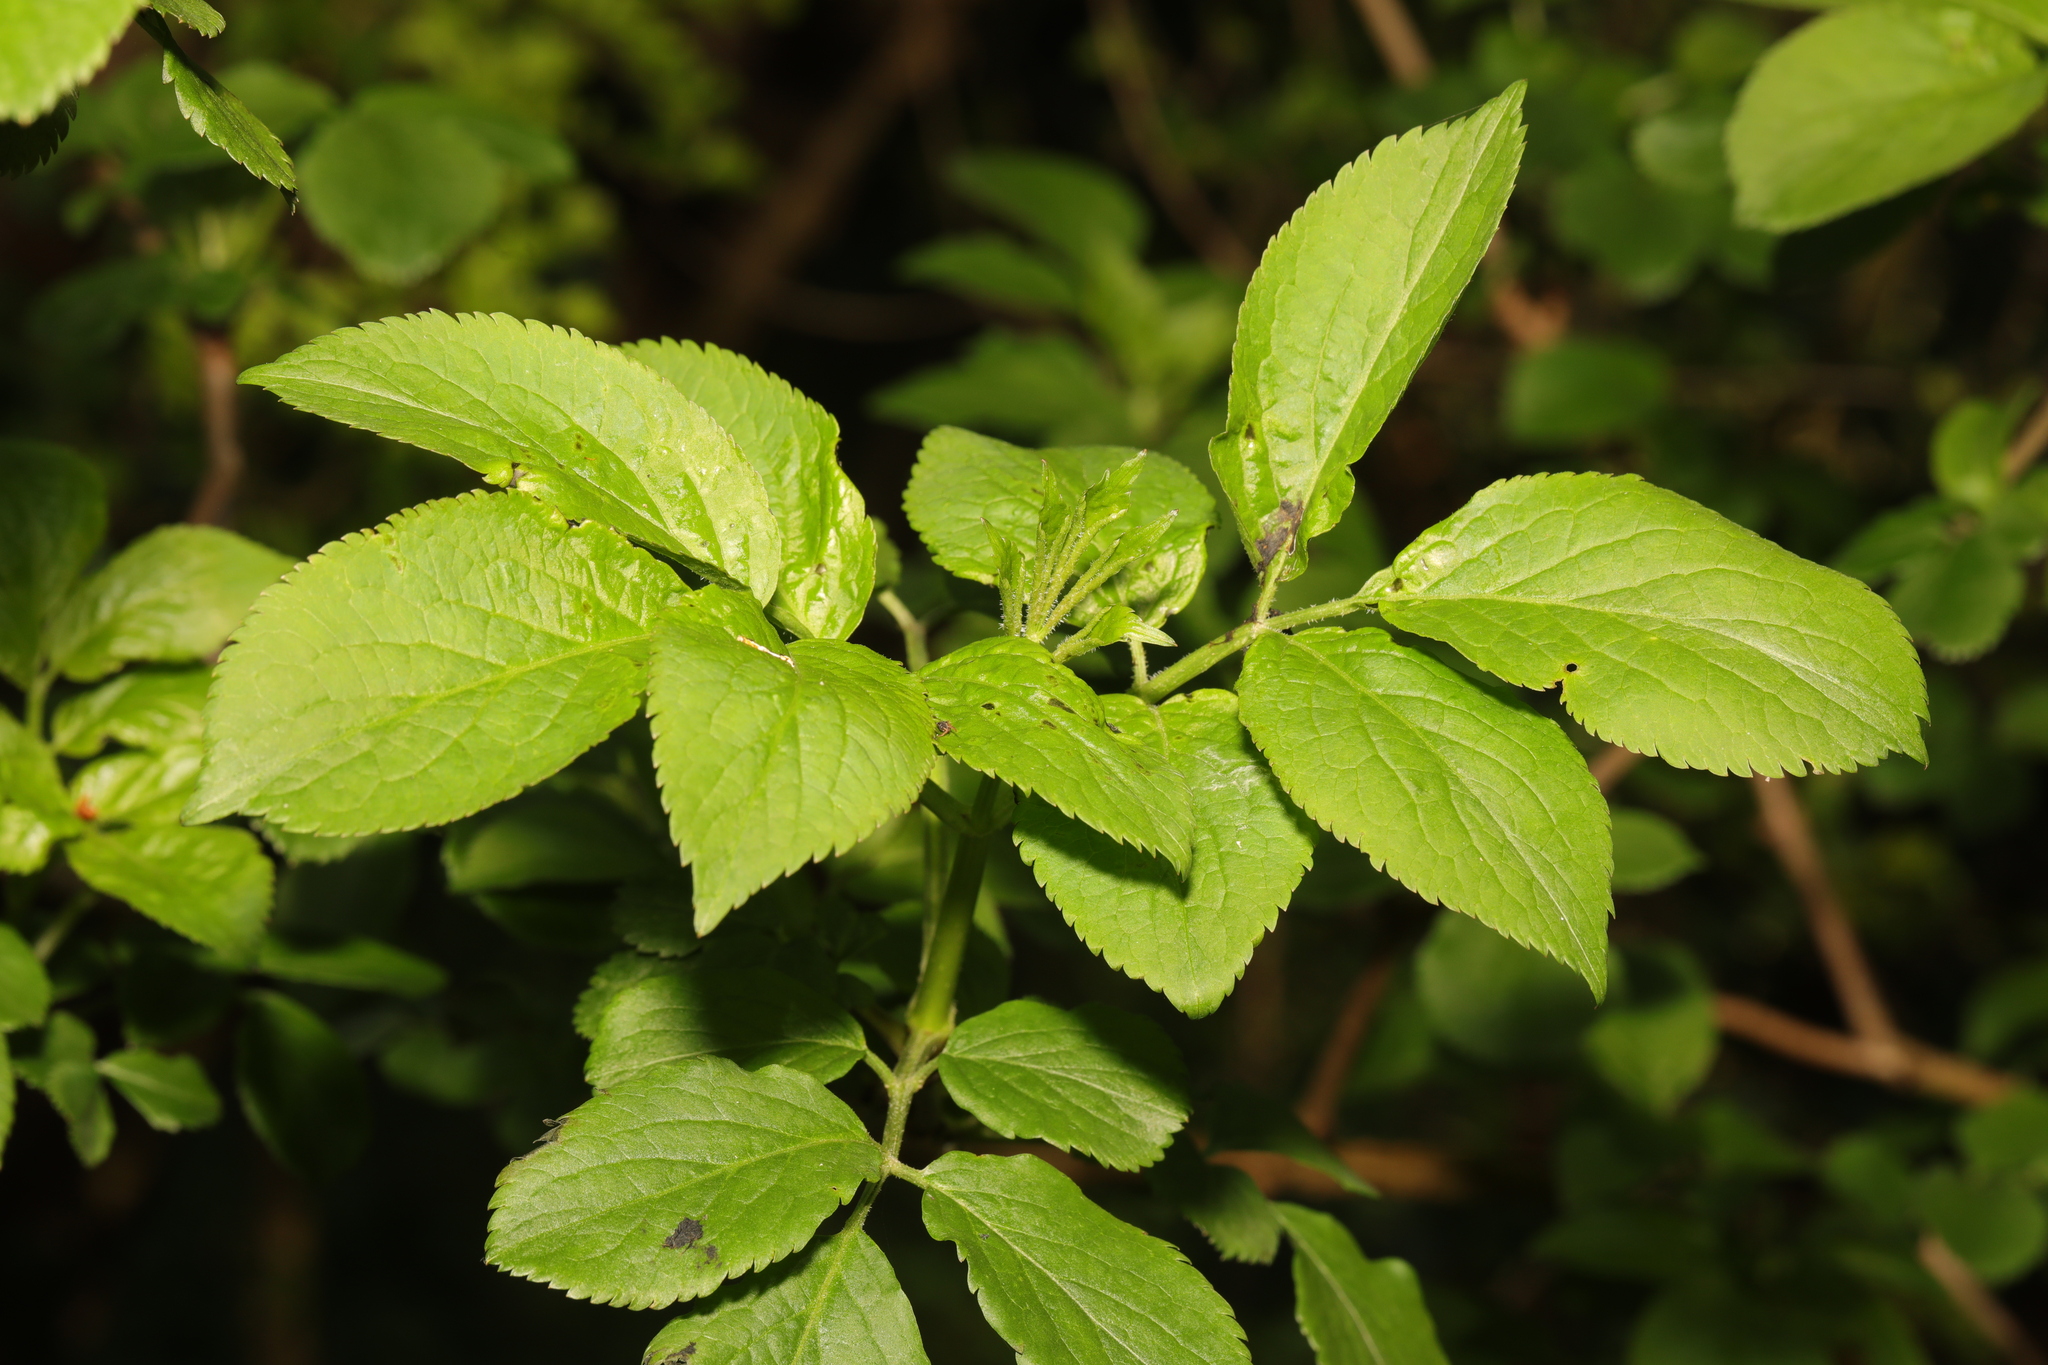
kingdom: Plantae
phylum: Tracheophyta
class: Magnoliopsida
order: Dipsacales
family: Viburnaceae
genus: Sambucus
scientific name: Sambucus nigra
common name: Elder
